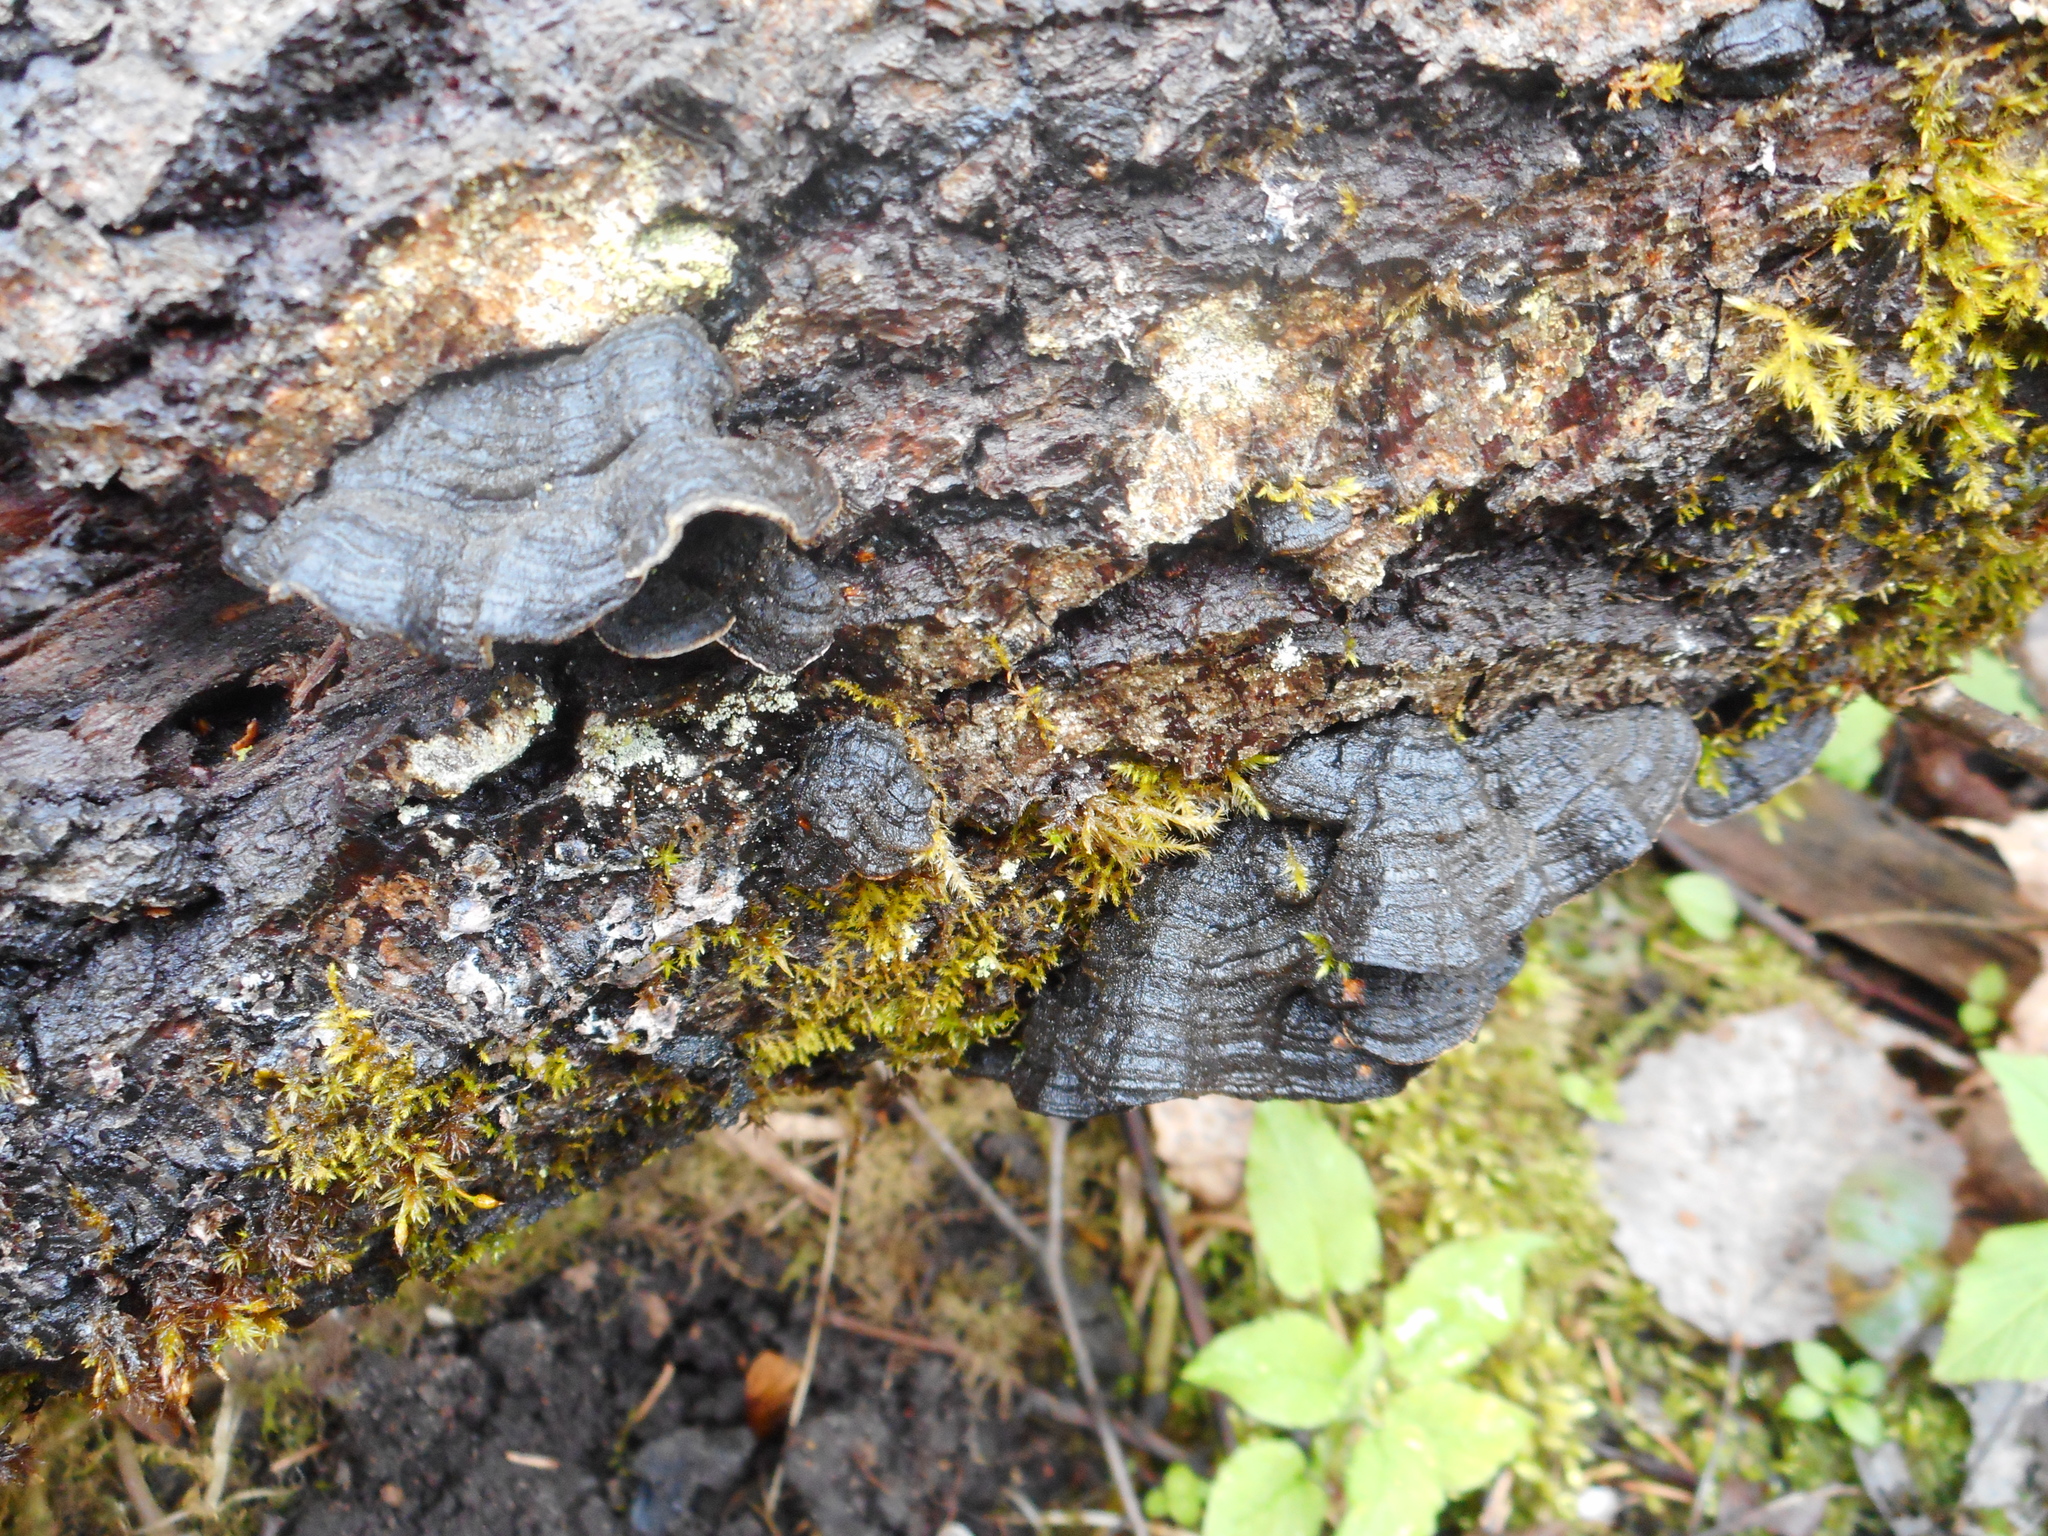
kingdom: Fungi
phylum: Basidiomycota
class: Agaricomycetes
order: Polyporales
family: Polyporaceae
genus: Podofomes
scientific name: Podofomes mollis
